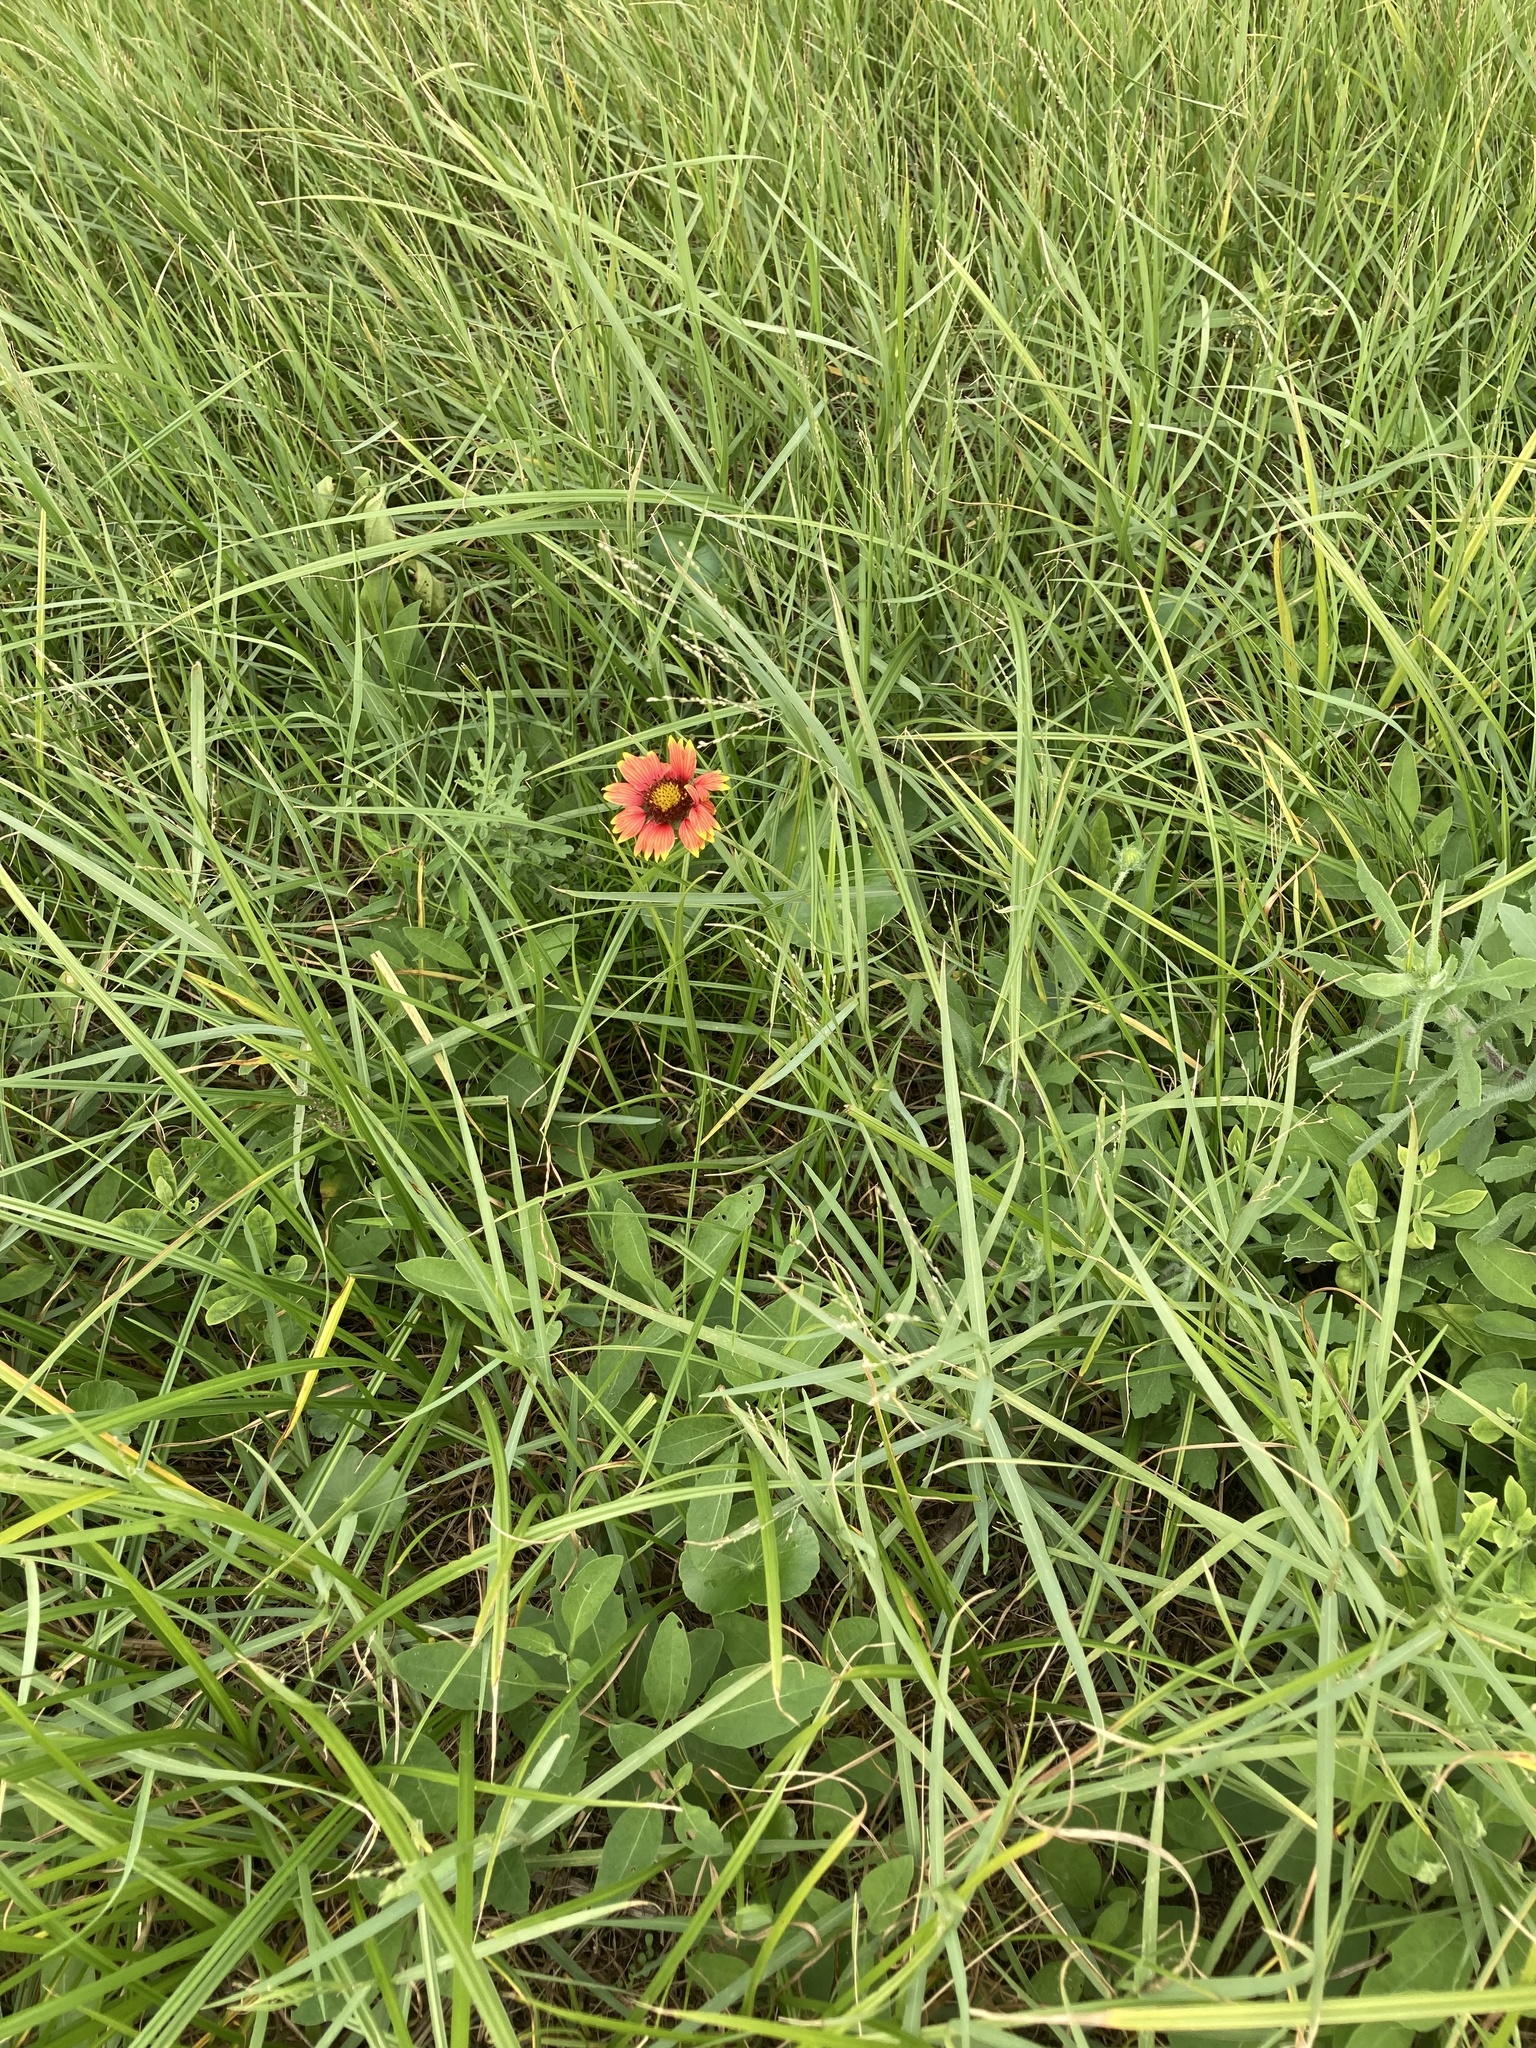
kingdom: Plantae
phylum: Tracheophyta
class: Magnoliopsida
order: Asterales
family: Asteraceae
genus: Gaillardia
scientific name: Gaillardia pulchella
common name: Firewheel
